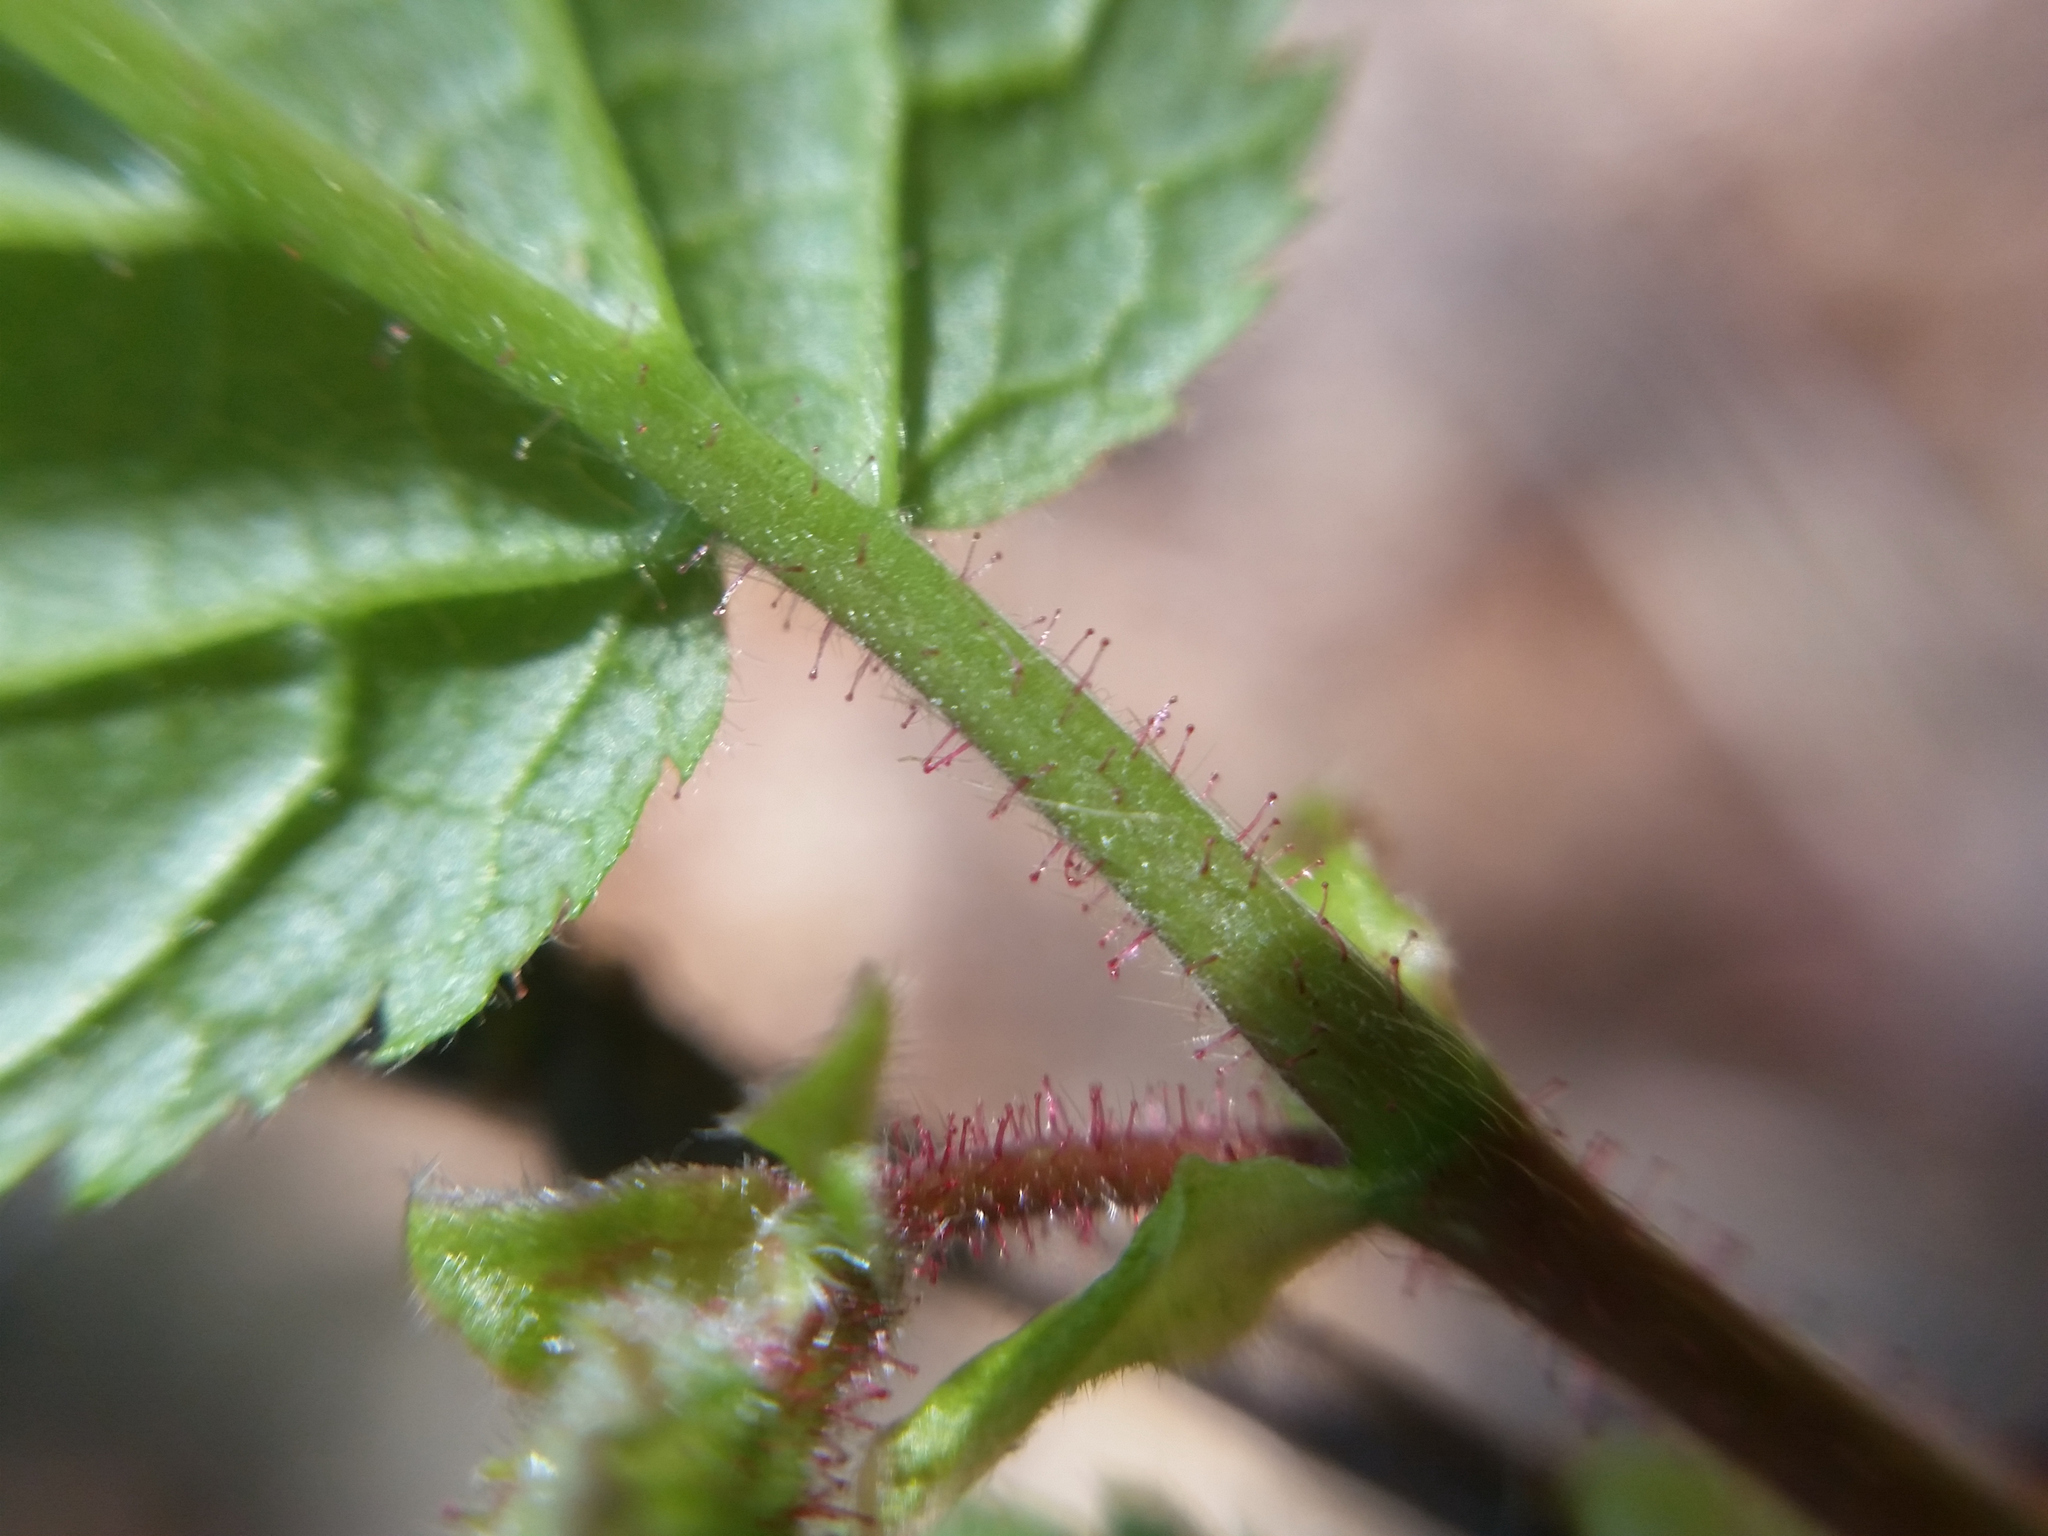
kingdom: Plantae
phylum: Tracheophyta
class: Magnoliopsida
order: Fagales
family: Betulaceae
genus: Corylus
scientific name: Corylus americana
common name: American hazel
